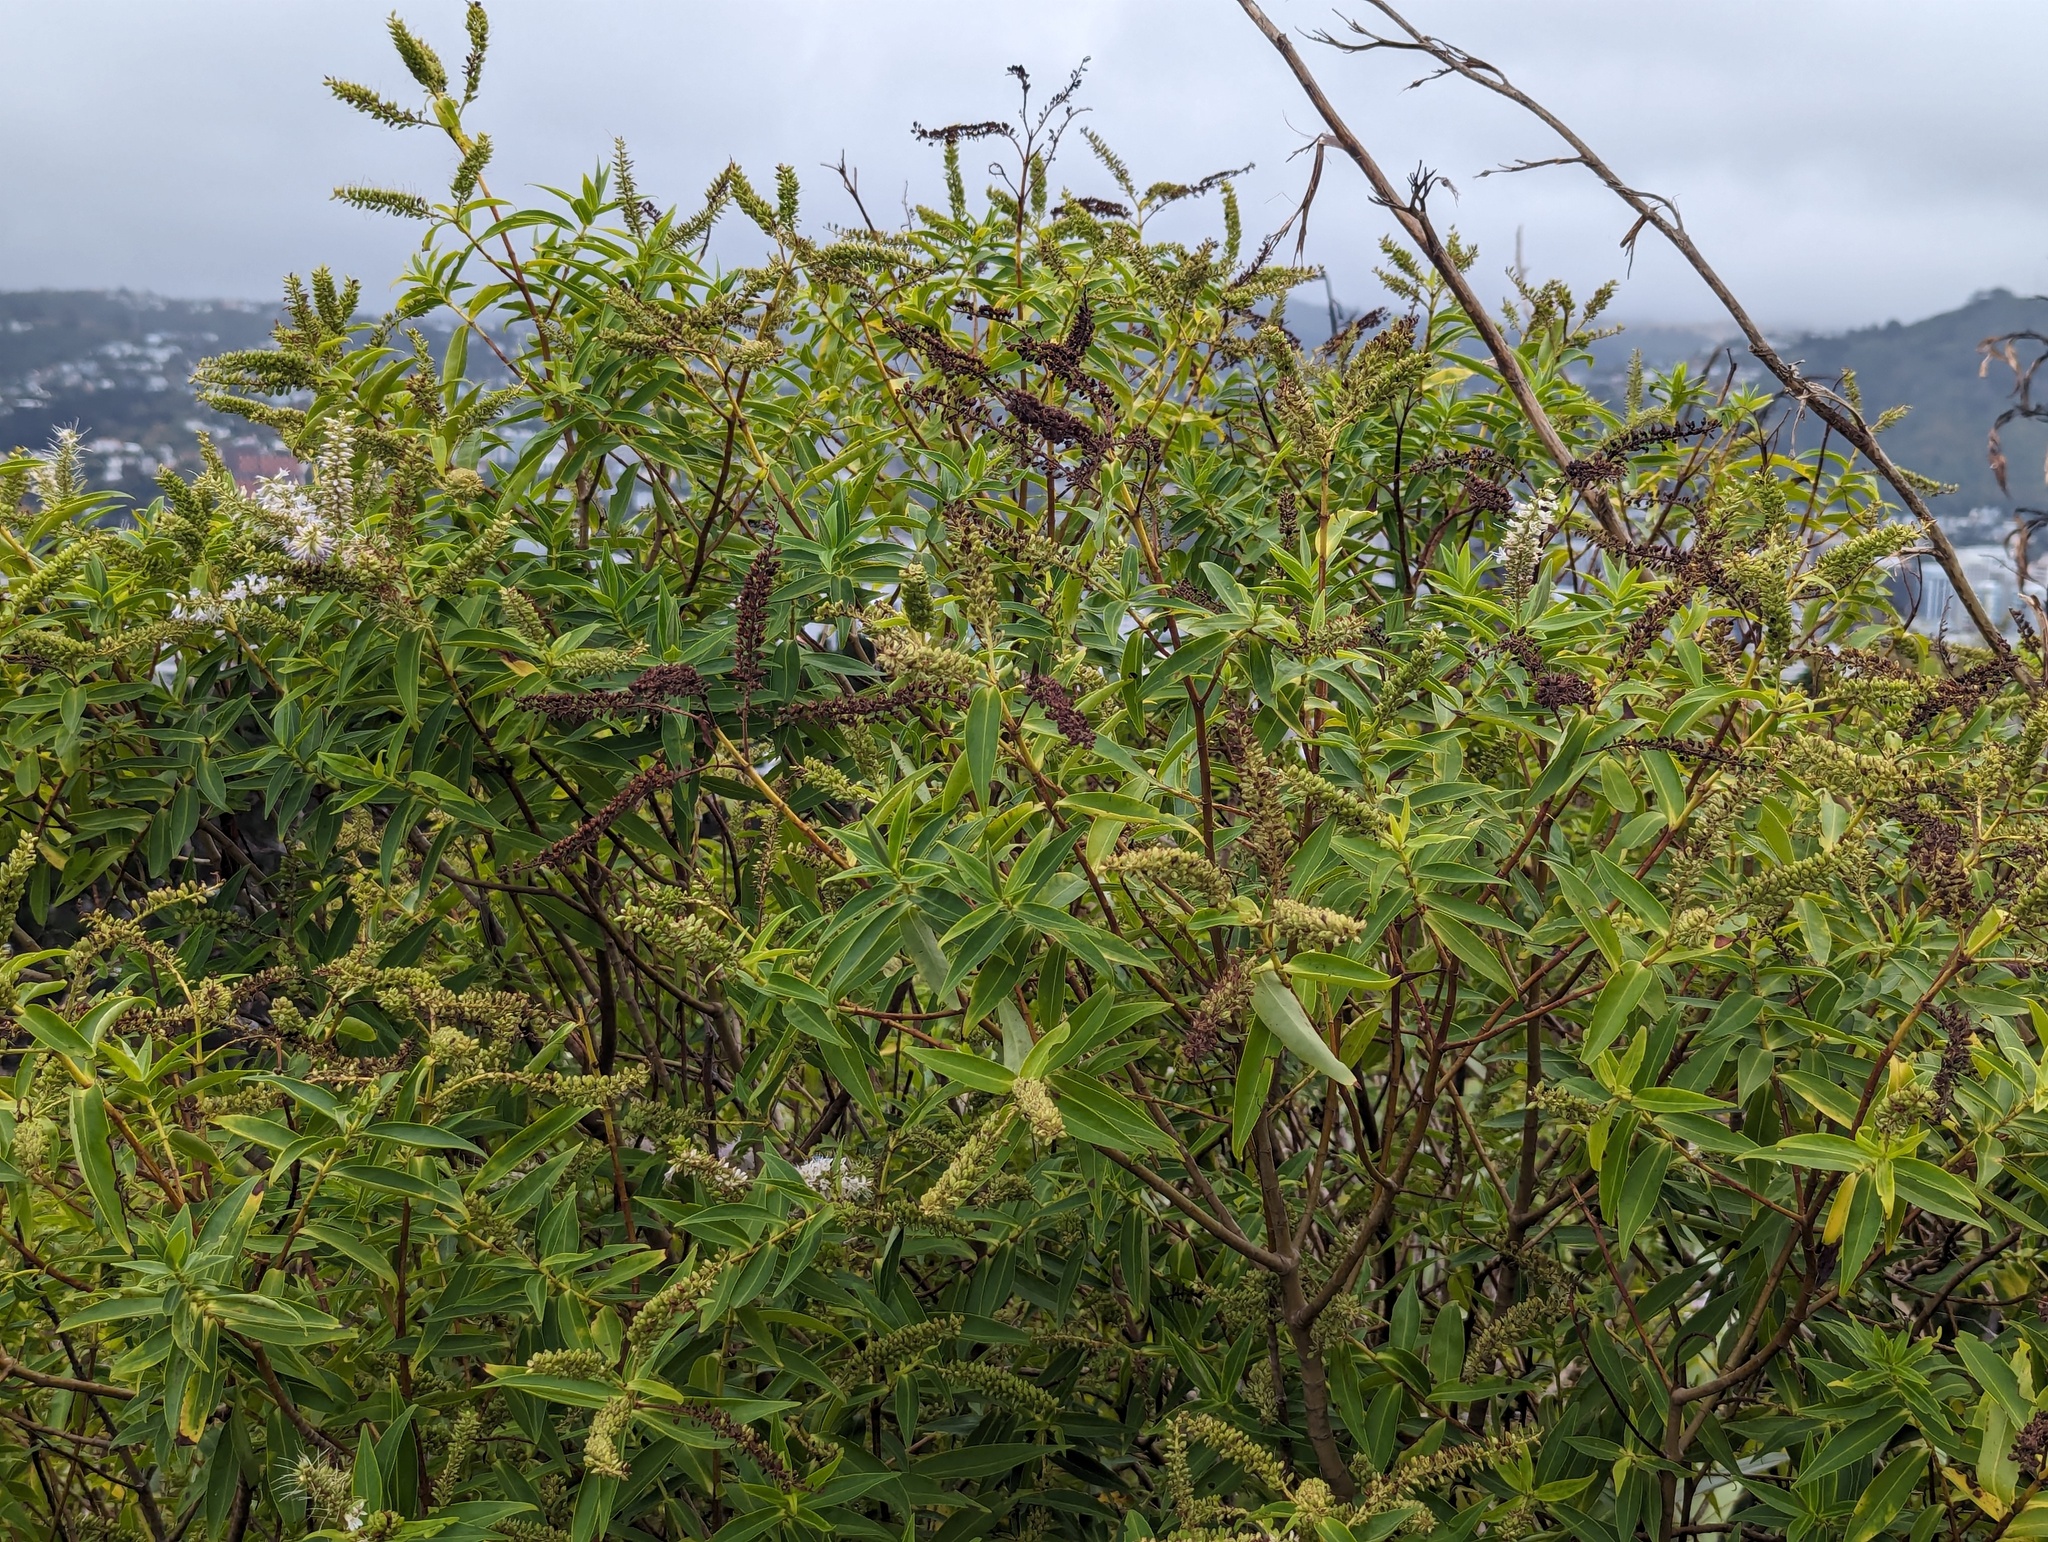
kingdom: Plantae
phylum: Tracheophyta
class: Magnoliopsida
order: Lamiales
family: Plantaginaceae
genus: Veronica
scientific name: Veronica stricta
